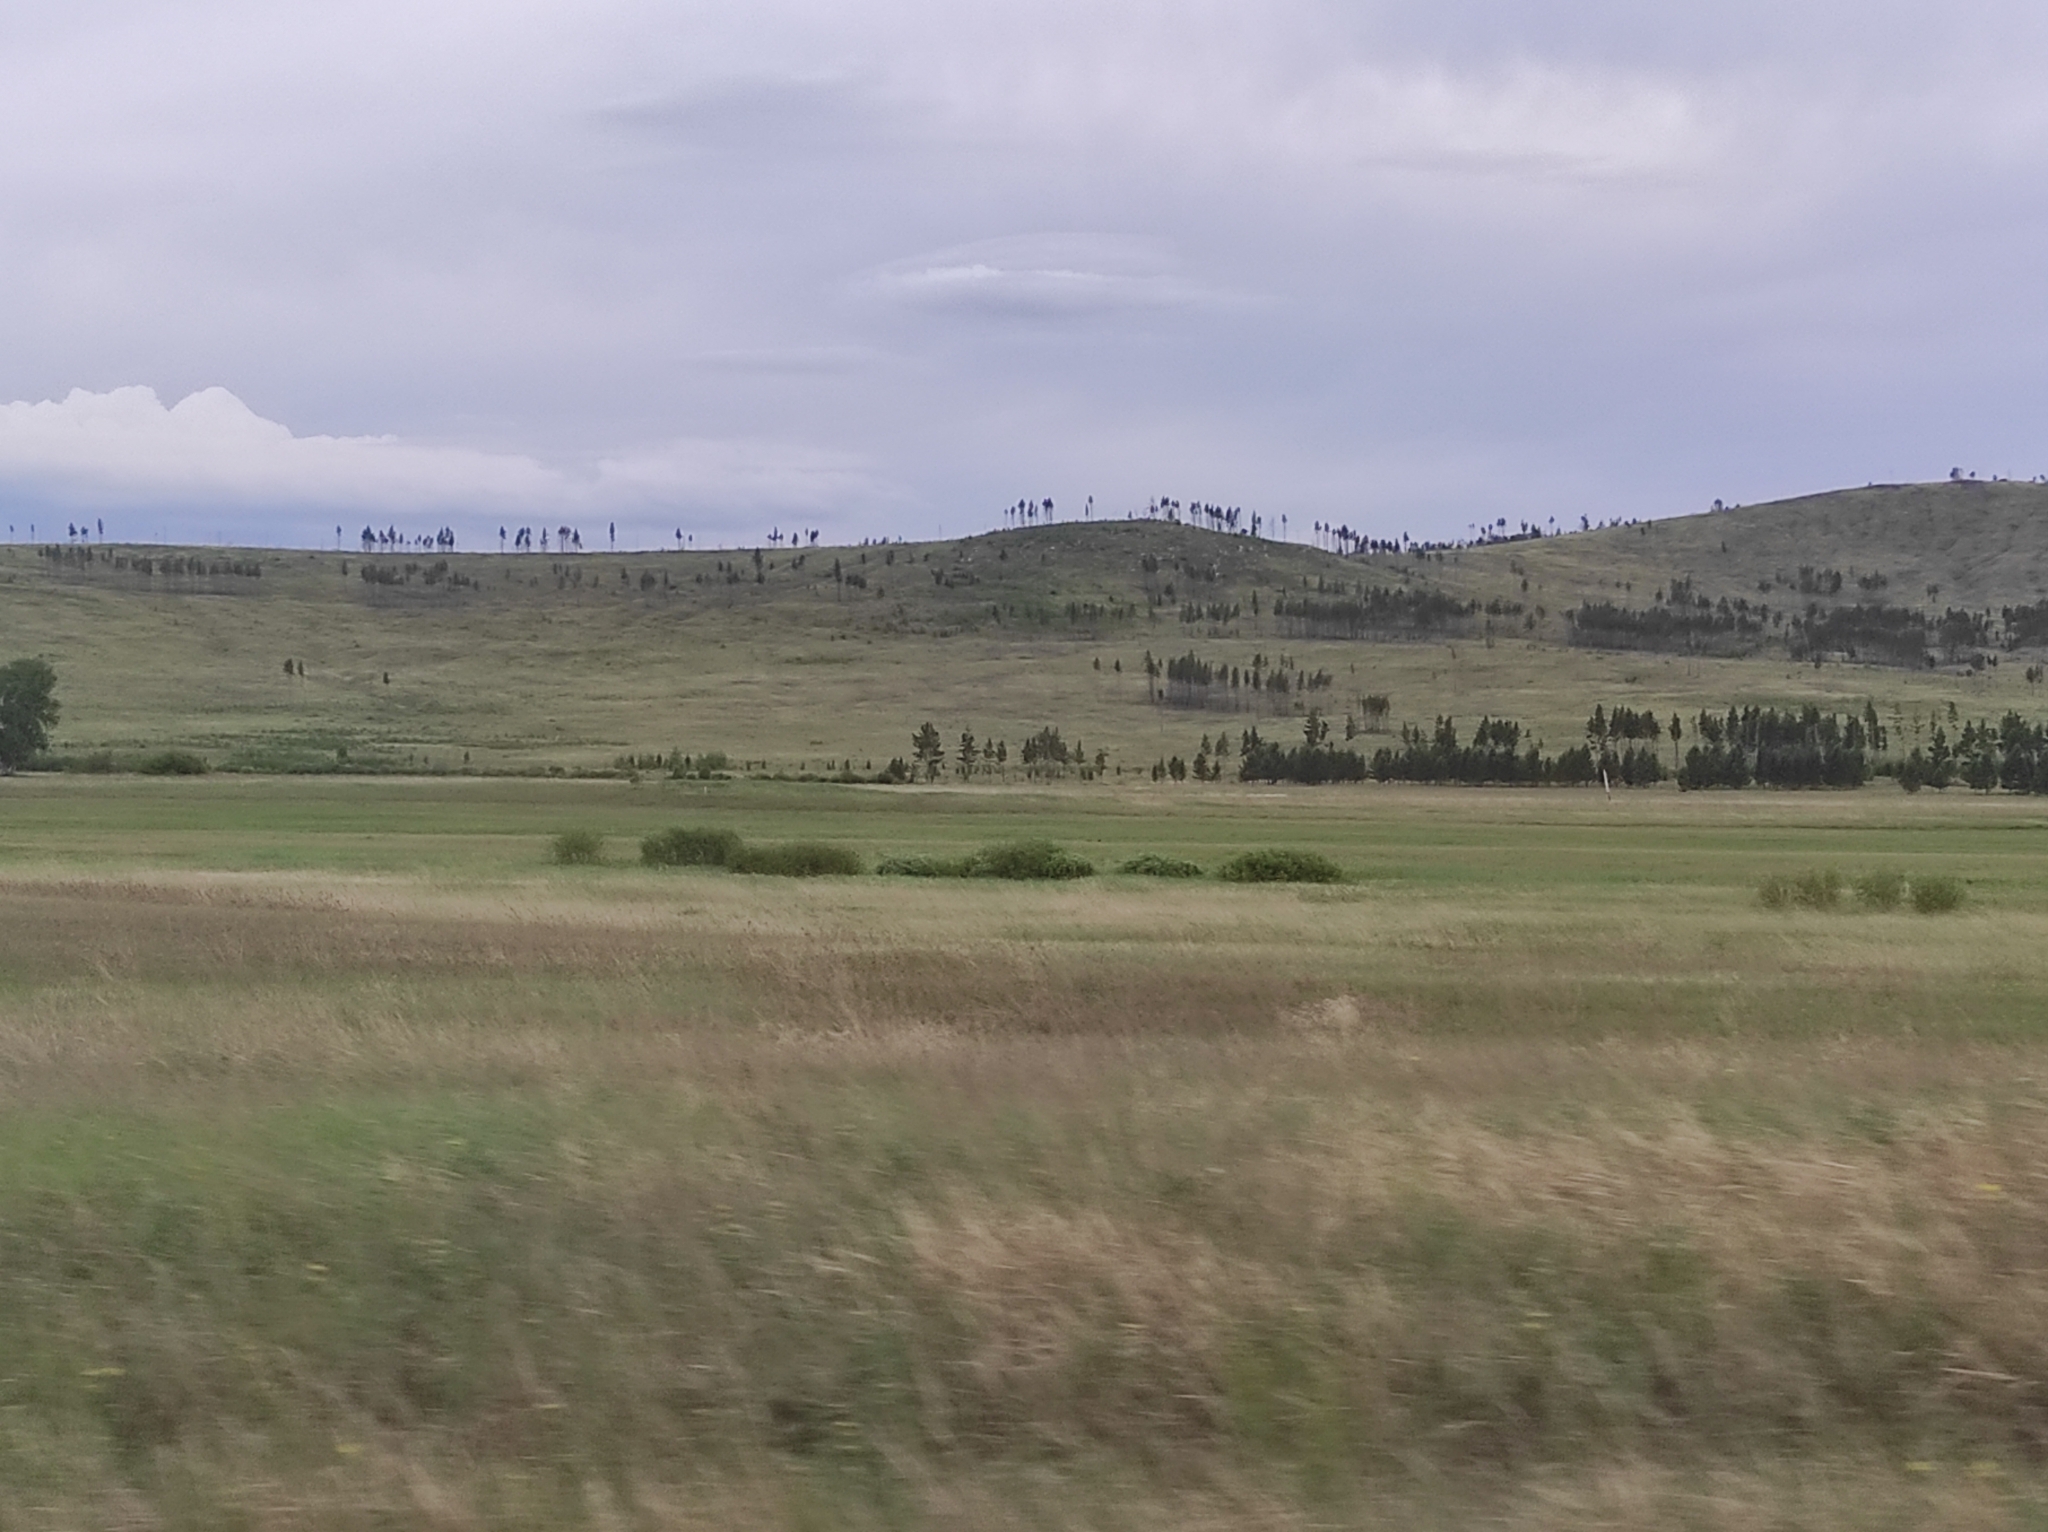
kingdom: Plantae
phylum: Tracheophyta
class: Pinopsida
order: Pinales
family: Pinaceae
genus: Larix
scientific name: Larix sibirica
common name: Siberian larch
